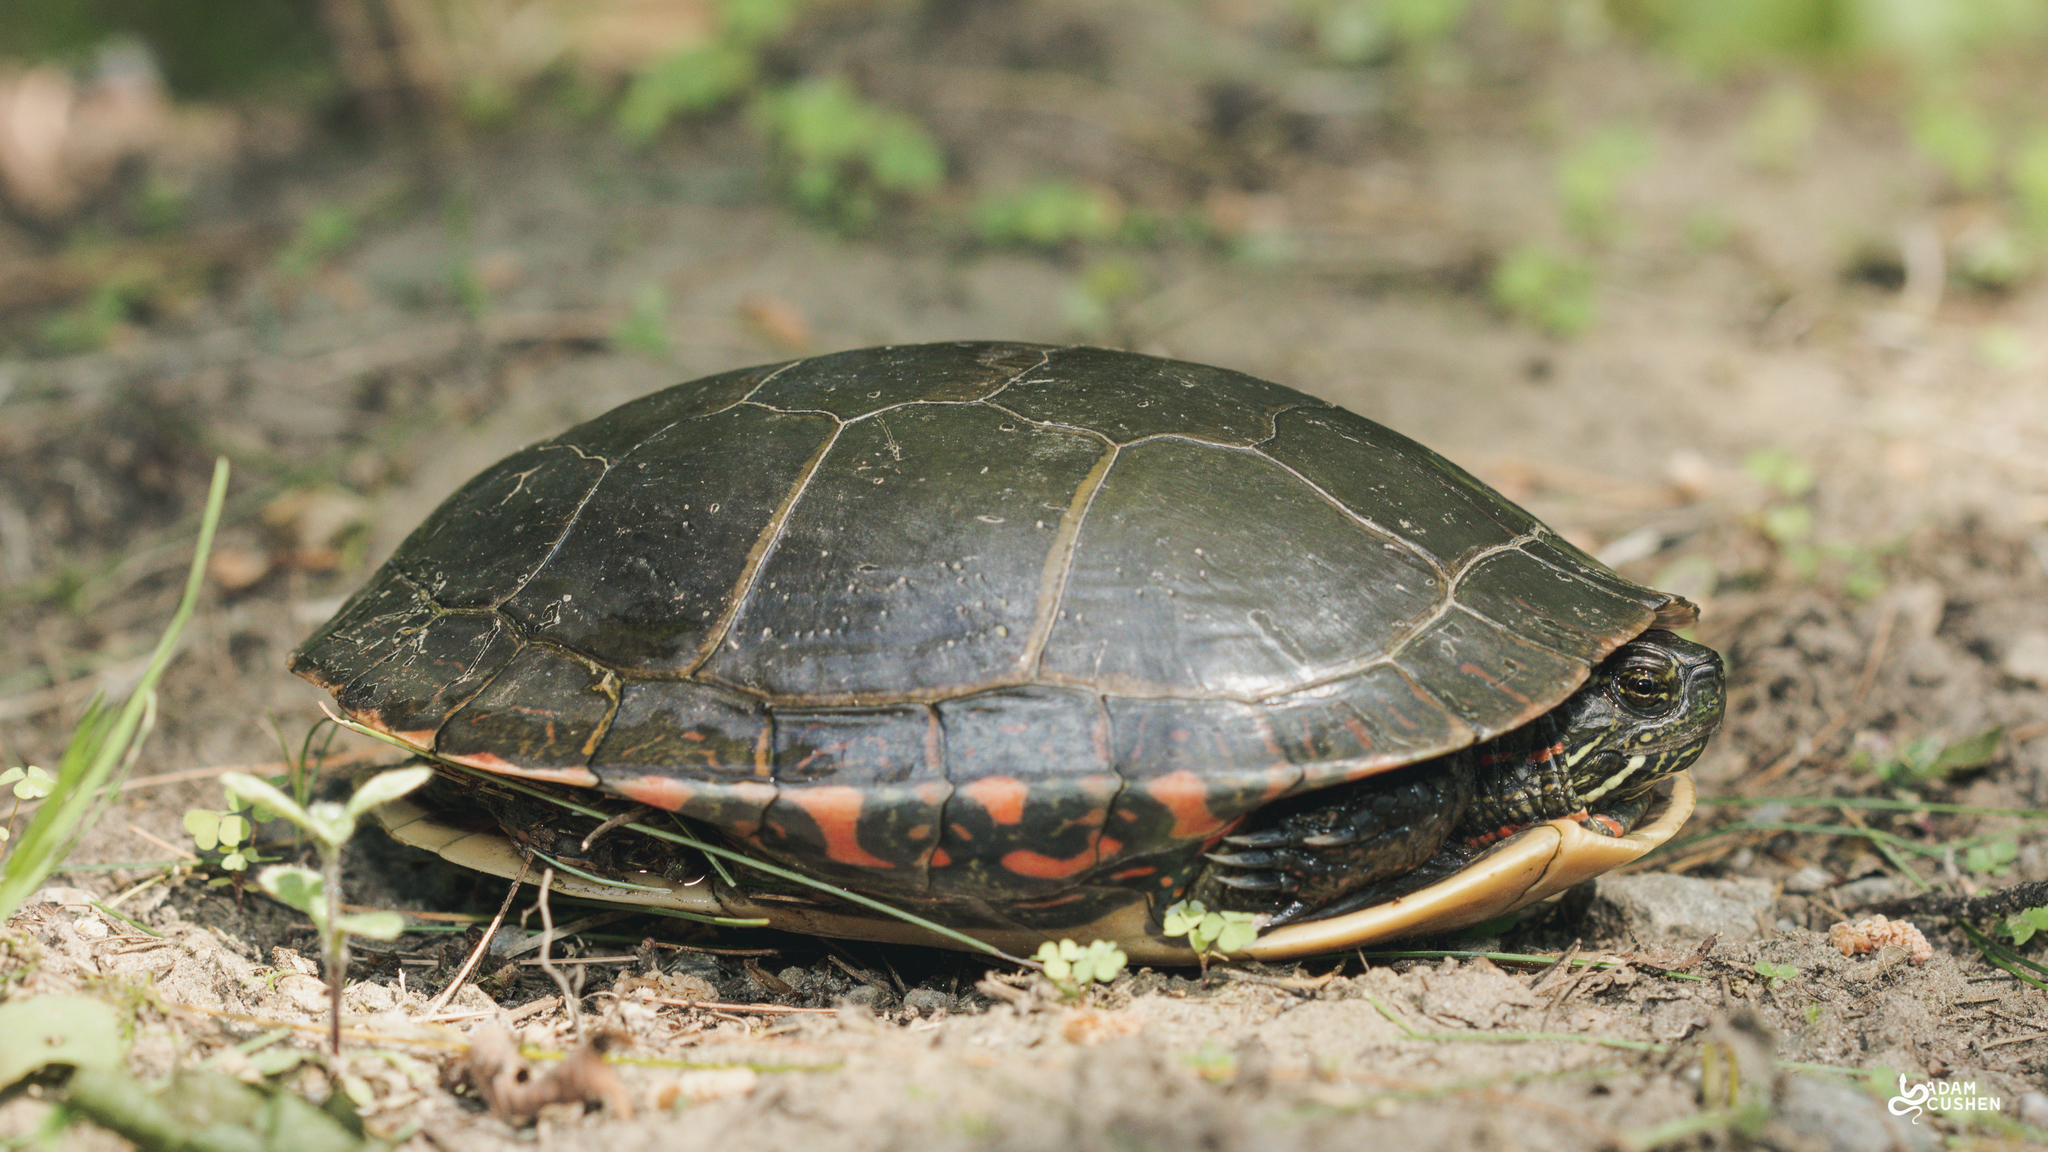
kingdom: Animalia
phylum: Chordata
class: Testudines
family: Emydidae
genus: Chrysemys
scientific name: Chrysemys picta
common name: Painted turtle
